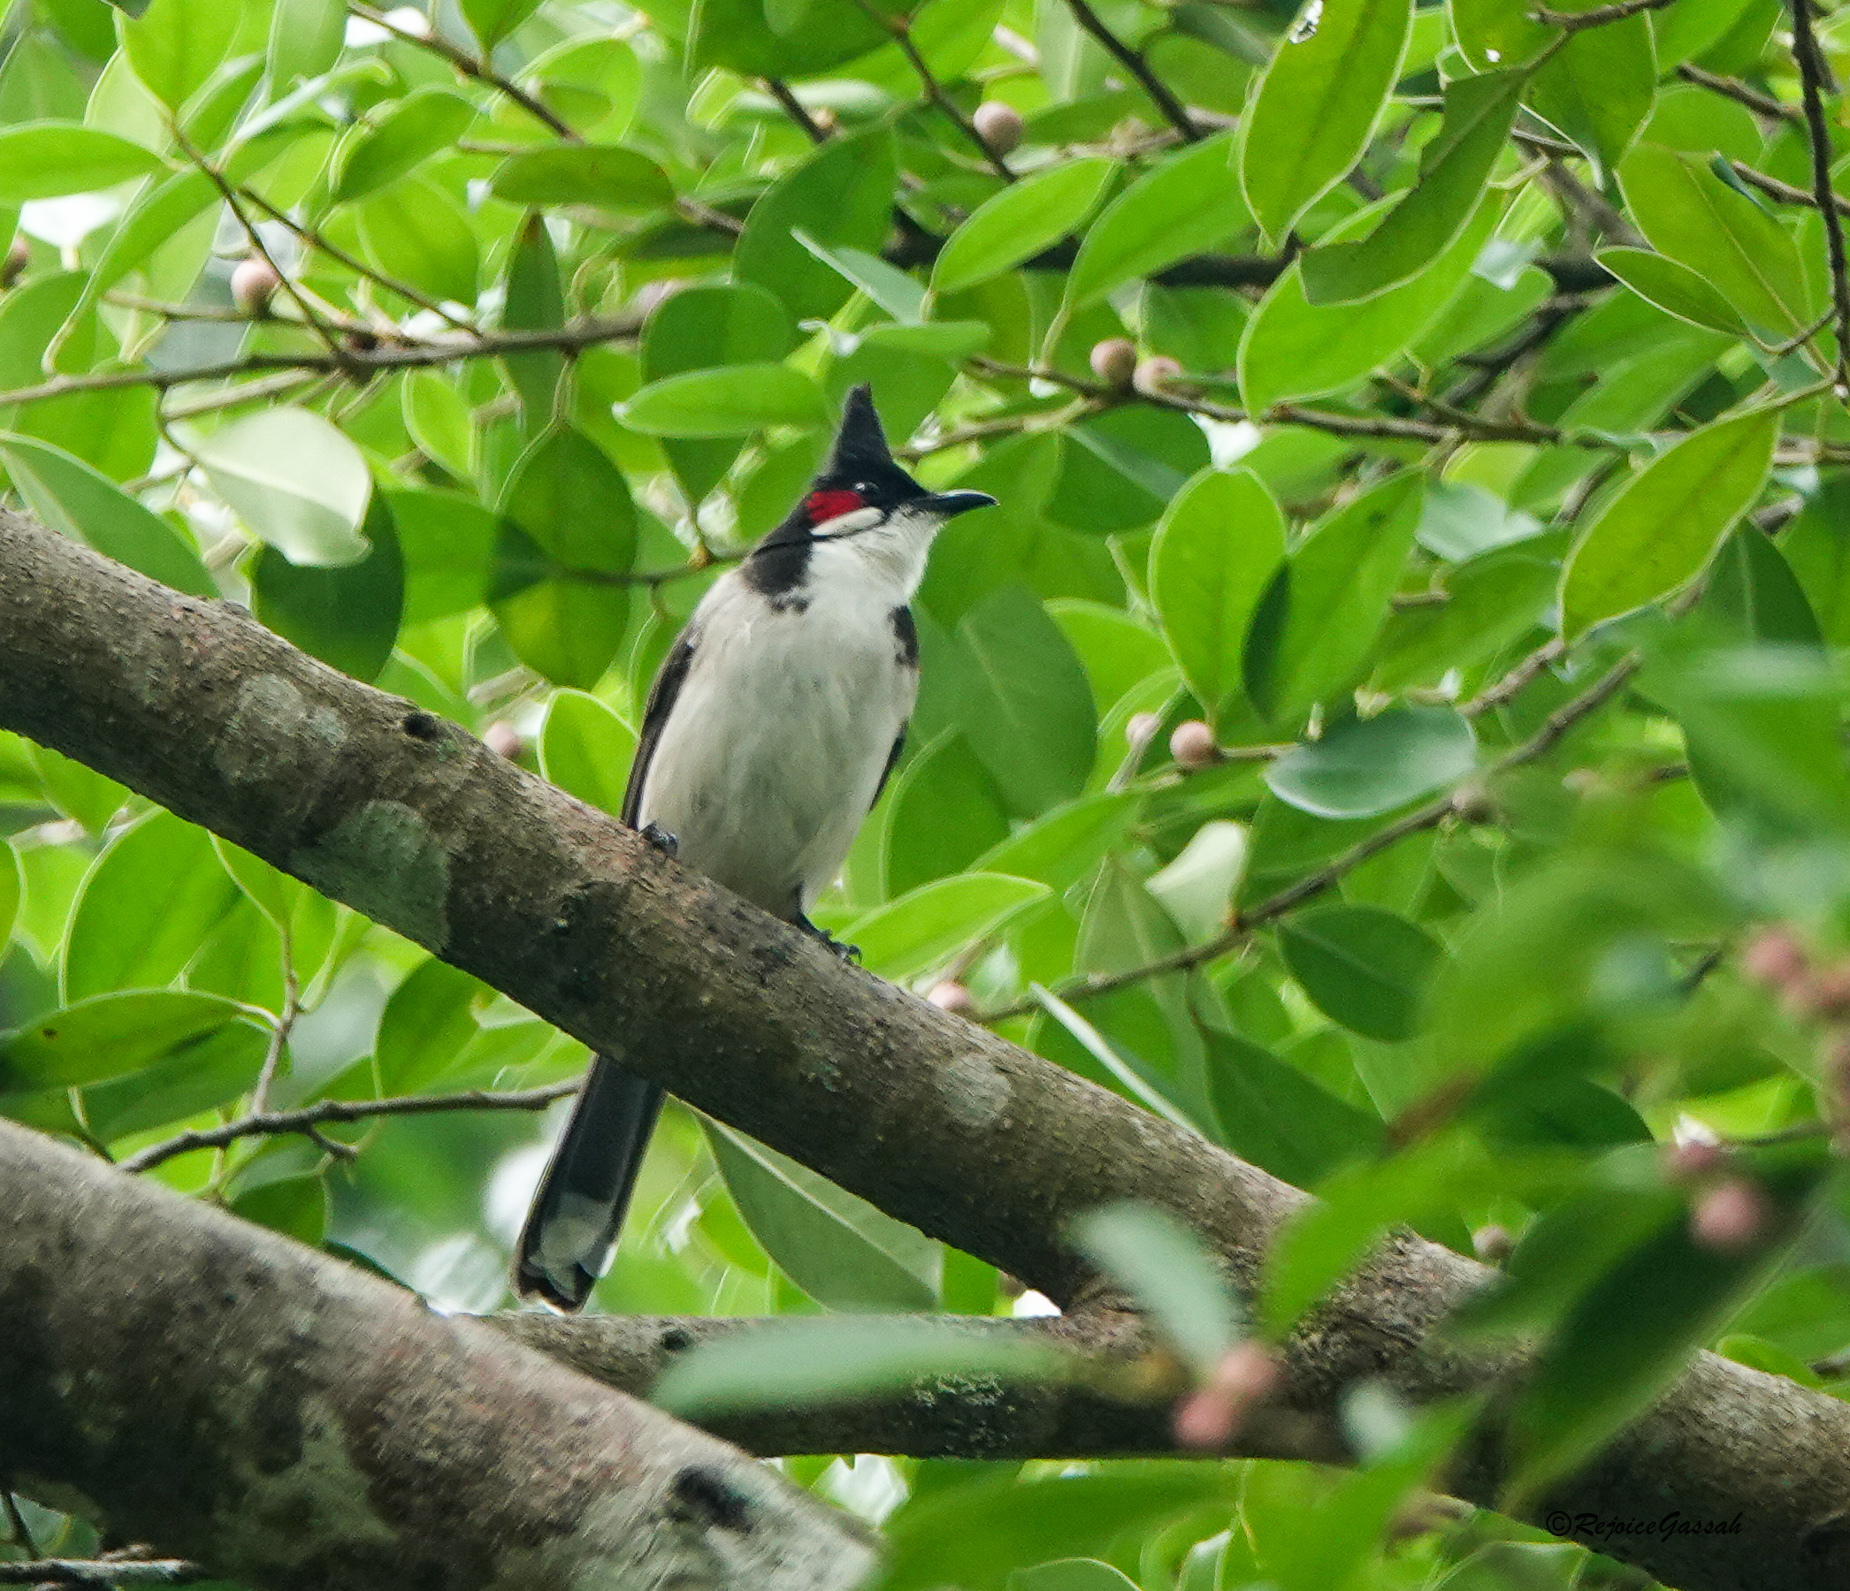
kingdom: Animalia
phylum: Chordata
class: Aves
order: Passeriformes
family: Pycnonotidae
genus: Pycnonotus
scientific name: Pycnonotus jocosus
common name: Red-whiskered bulbul
